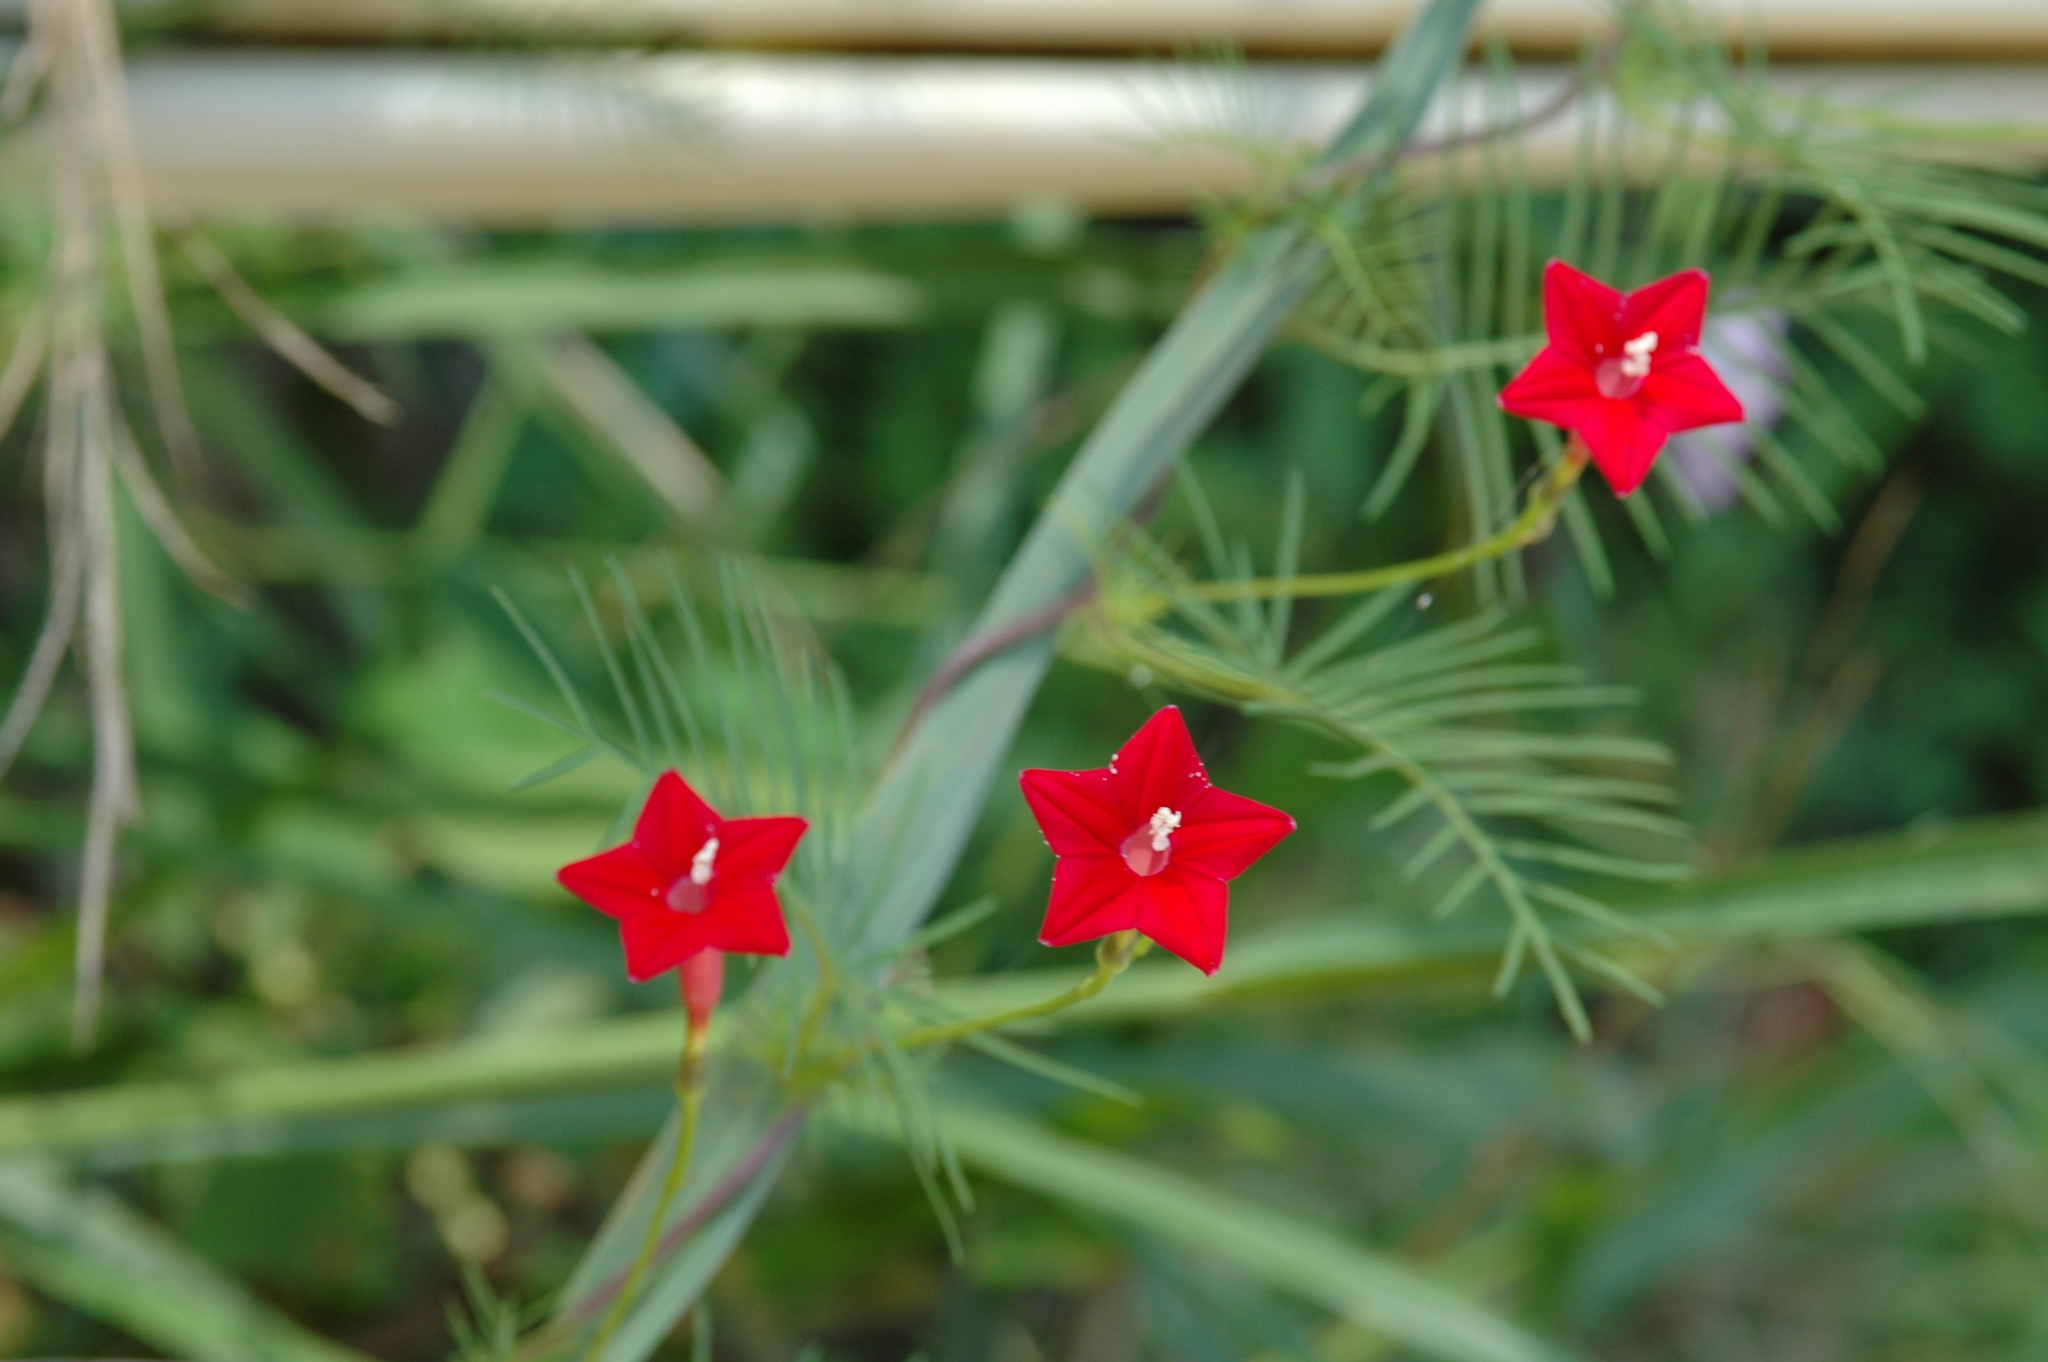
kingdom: Plantae
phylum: Tracheophyta
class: Magnoliopsida
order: Solanales
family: Convolvulaceae
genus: Ipomoea
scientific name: Ipomoea quamoclit
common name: Cypress vine
